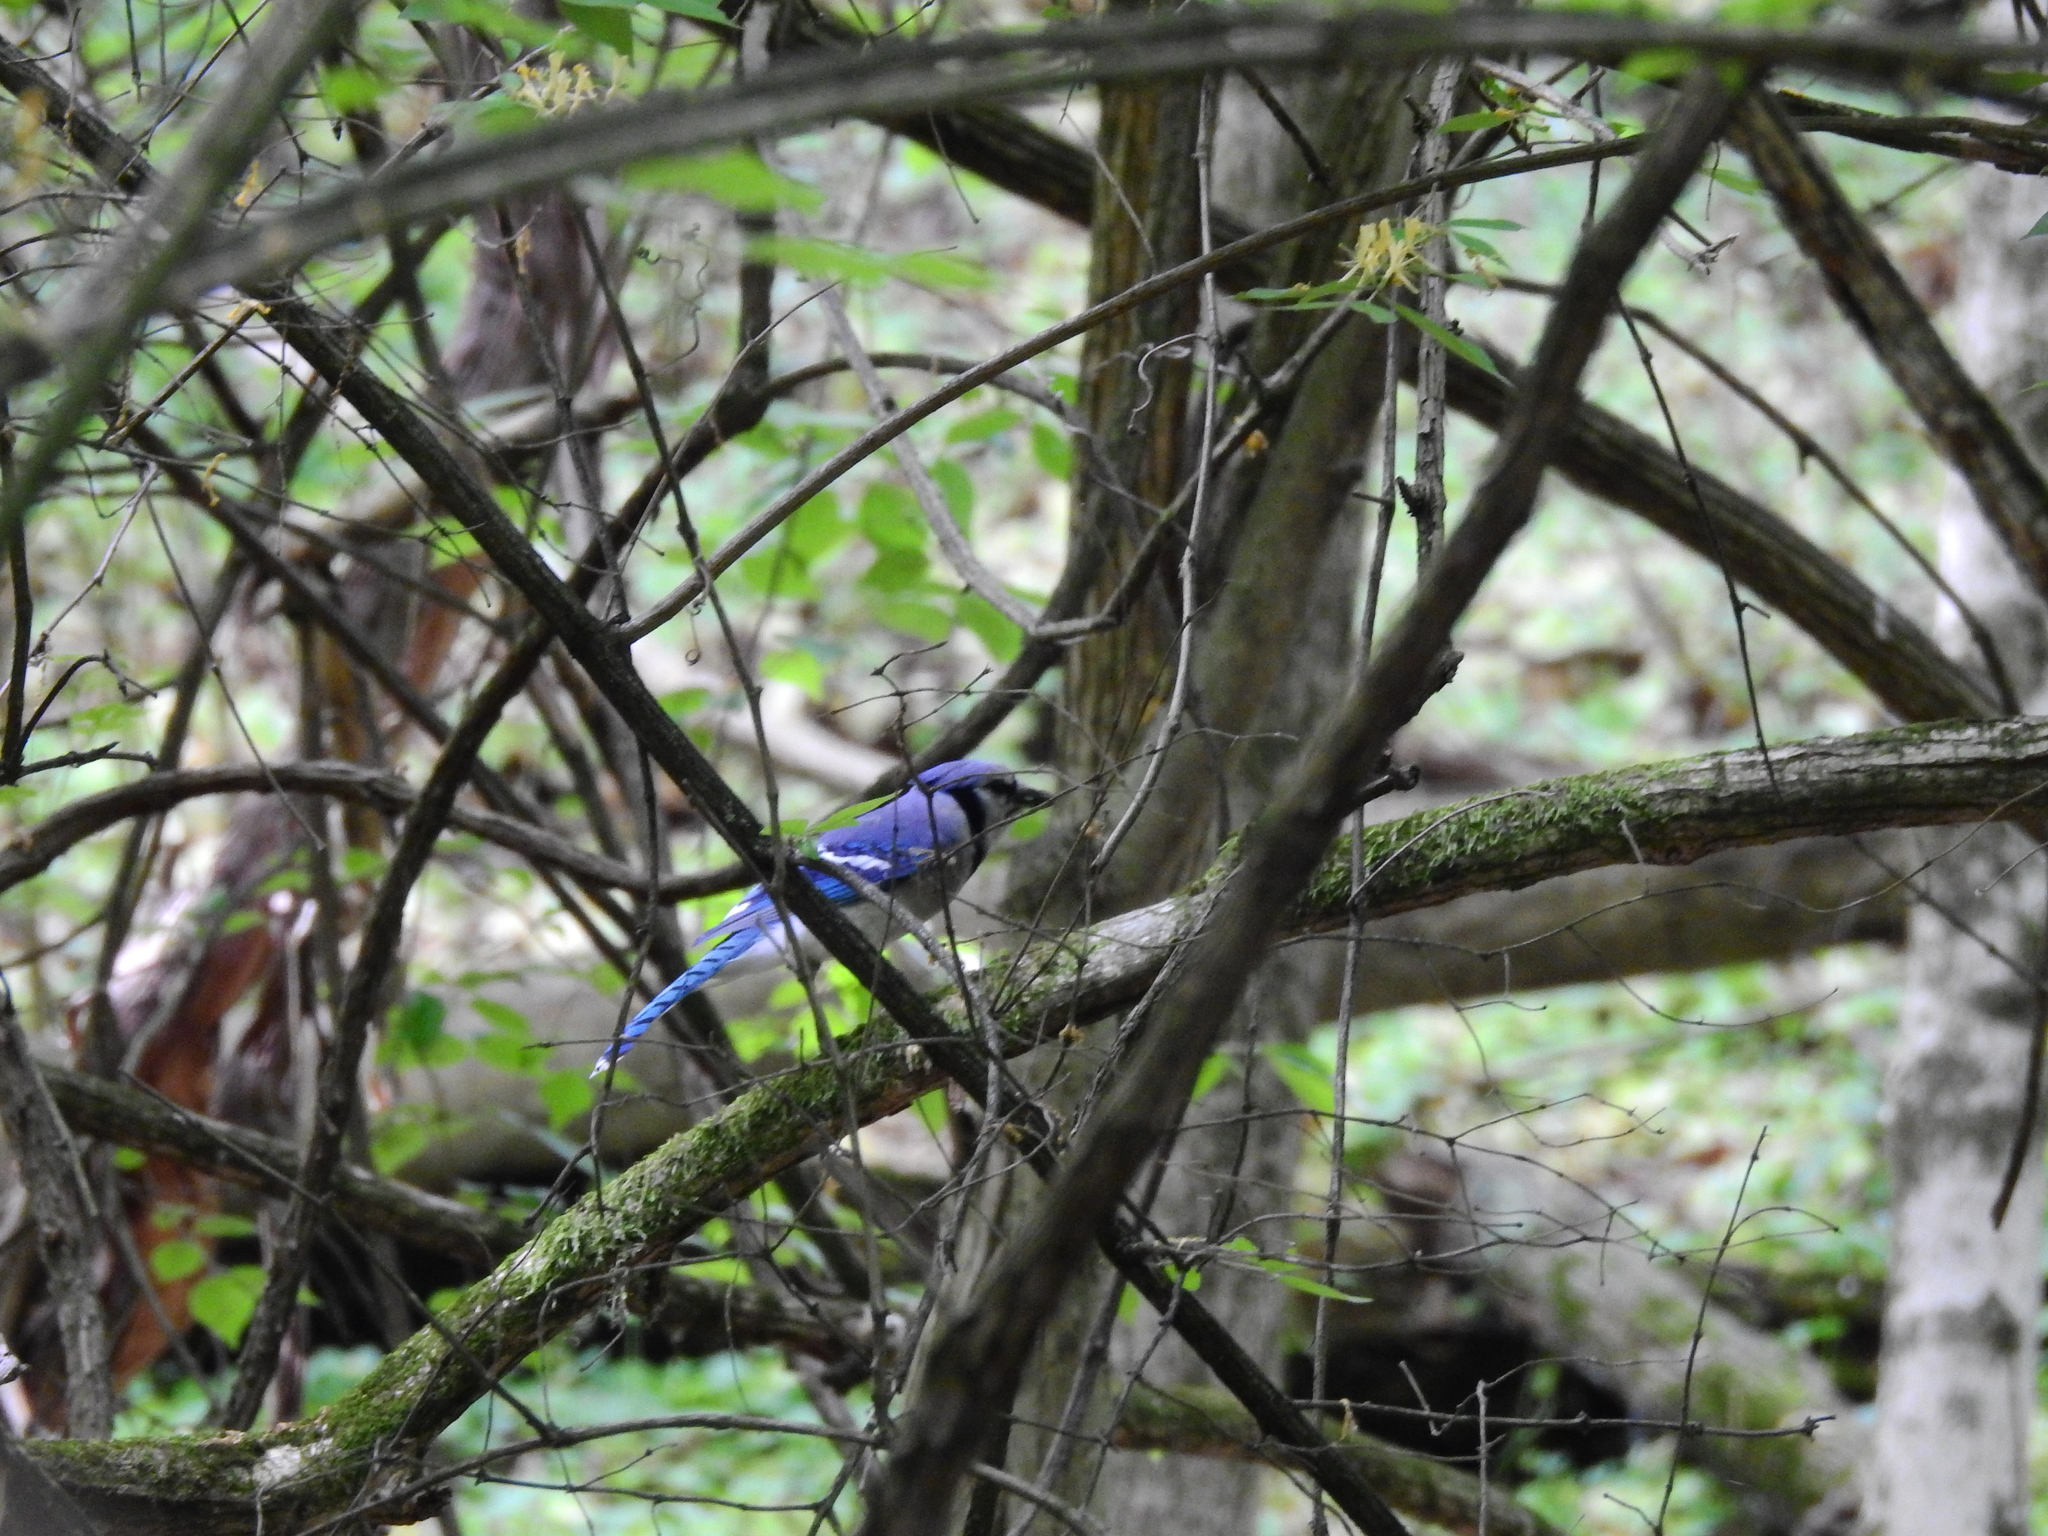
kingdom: Animalia
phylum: Chordata
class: Aves
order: Passeriformes
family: Corvidae
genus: Cyanocitta
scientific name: Cyanocitta cristata
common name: Blue jay
